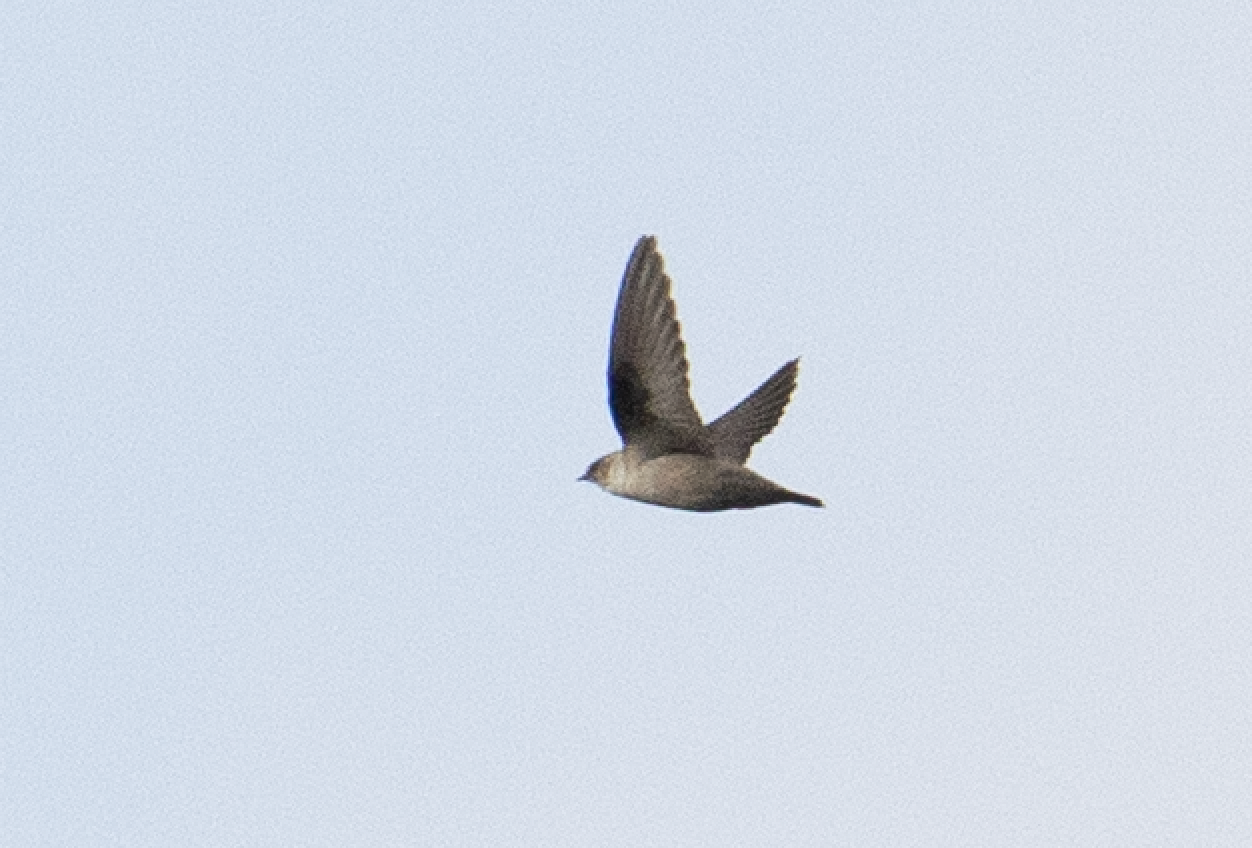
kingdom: Animalia
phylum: Chordata
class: Aves
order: Passeriformes
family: Hirundinidae
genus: Ptyonoprogne
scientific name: Ptyonoprogne rupestris
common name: Eurasian crag martin
